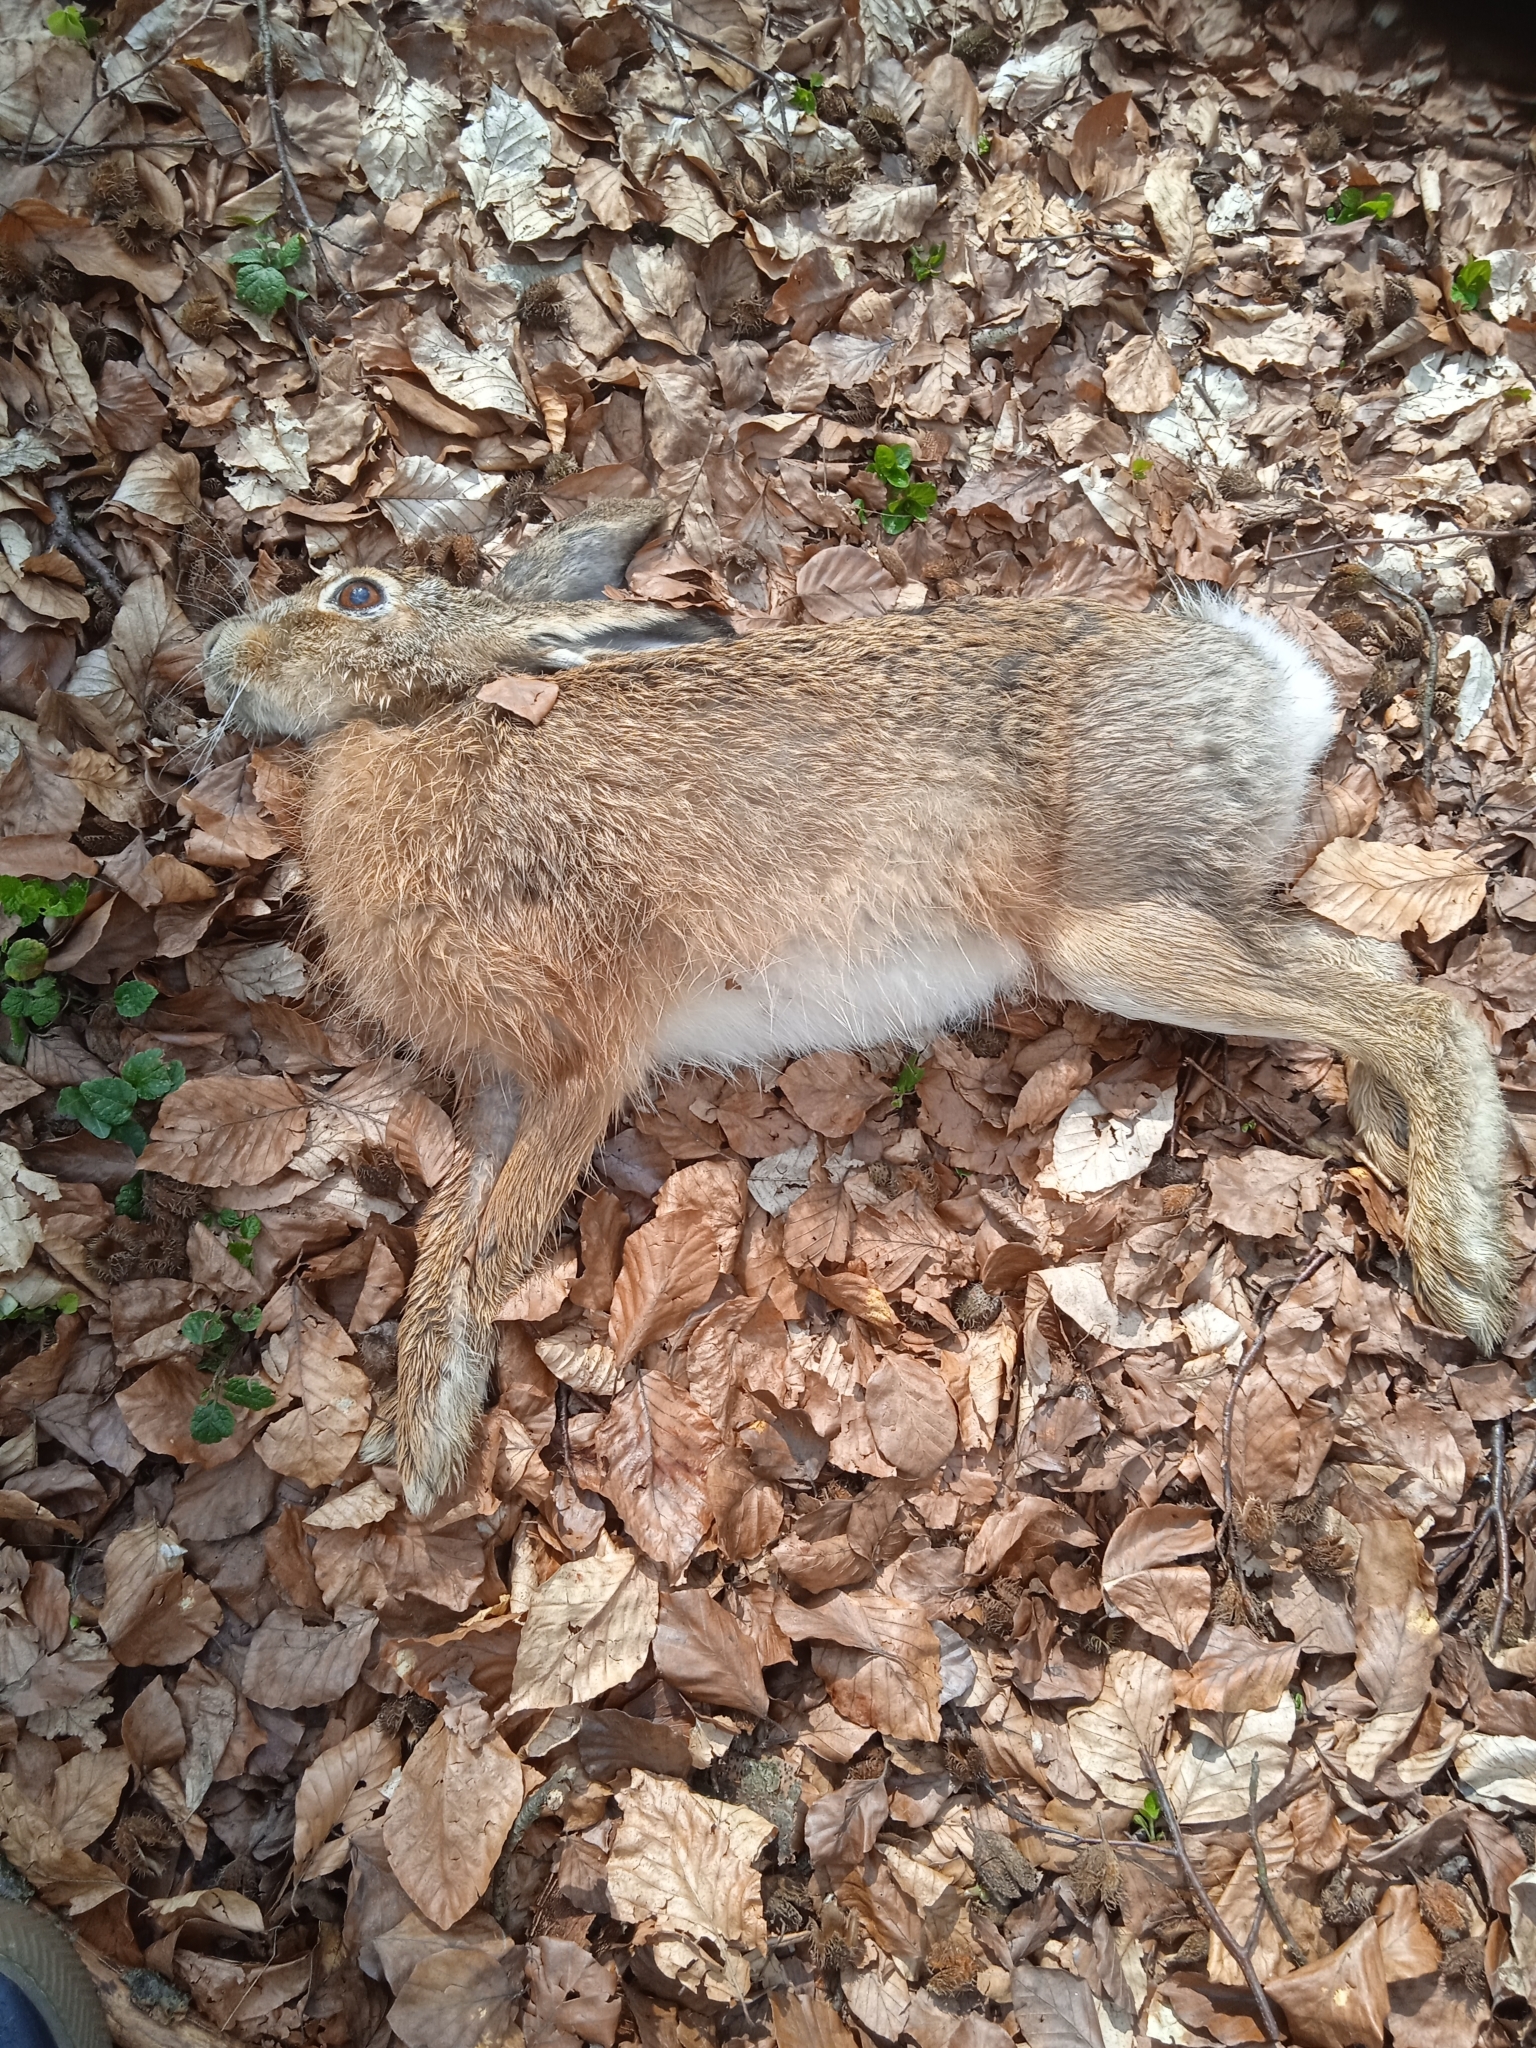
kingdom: Animalia
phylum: Chordata
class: Mammalia
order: Lagomorpha
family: Leporidae
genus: Lepus
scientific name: Lepus europaeus
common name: European hare
